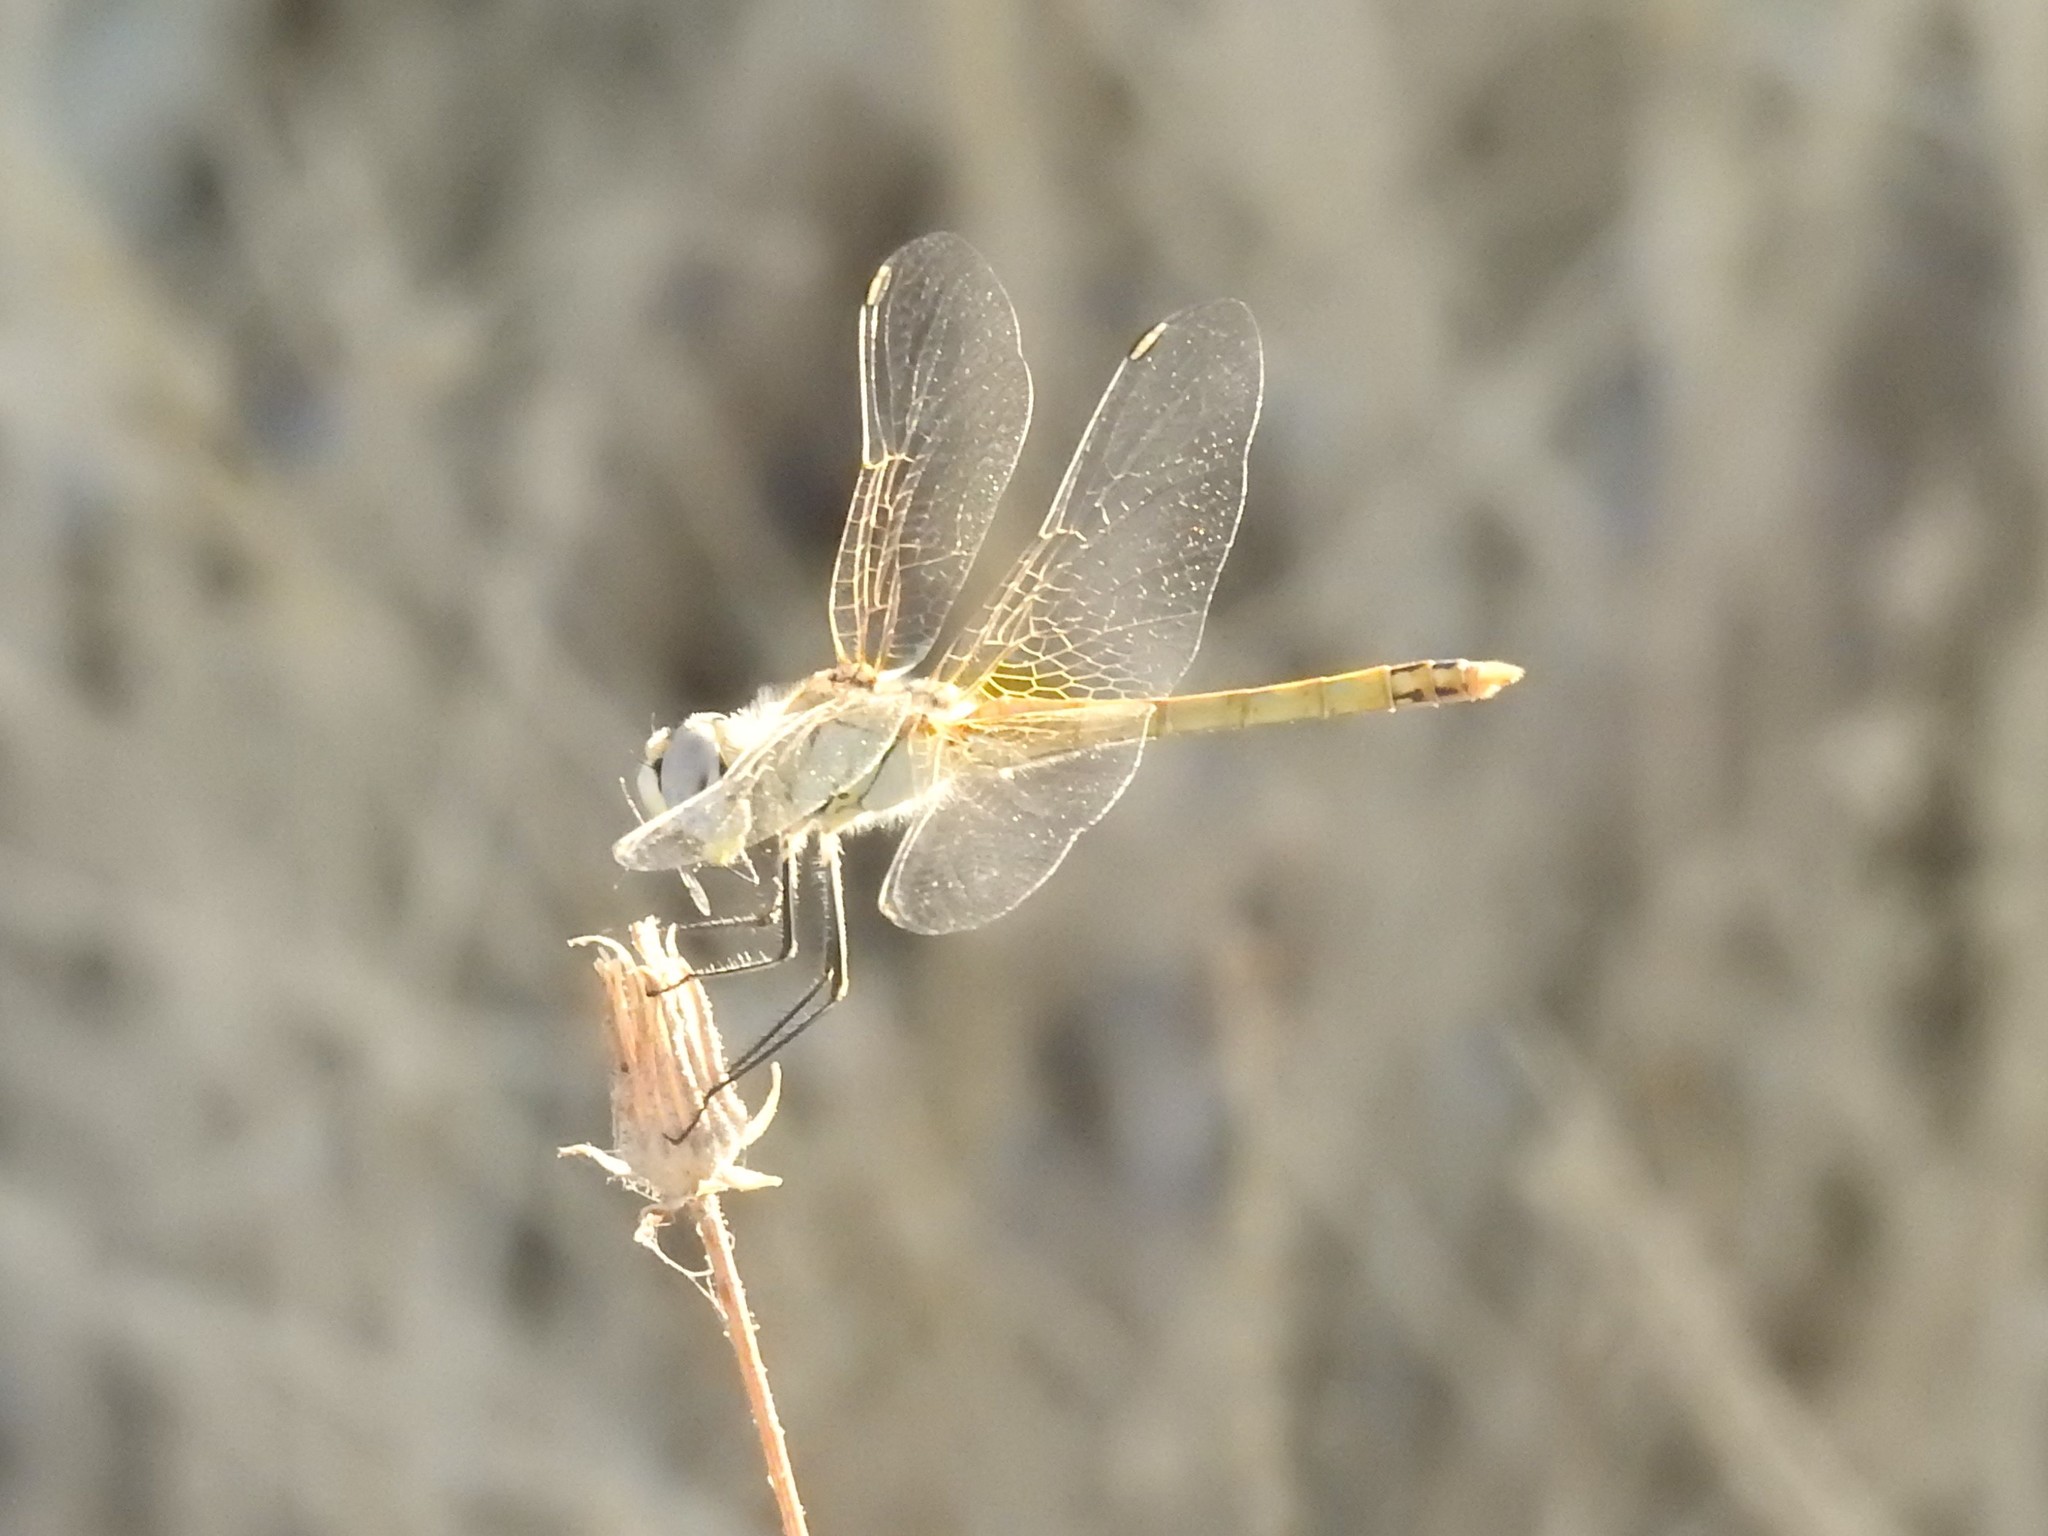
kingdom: Animalia
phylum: Arthropoda
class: Insecta
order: Odonata
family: Libellulidae
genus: Sympetrum
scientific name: Sympetrum fonscolombii
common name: Red-veined darter
